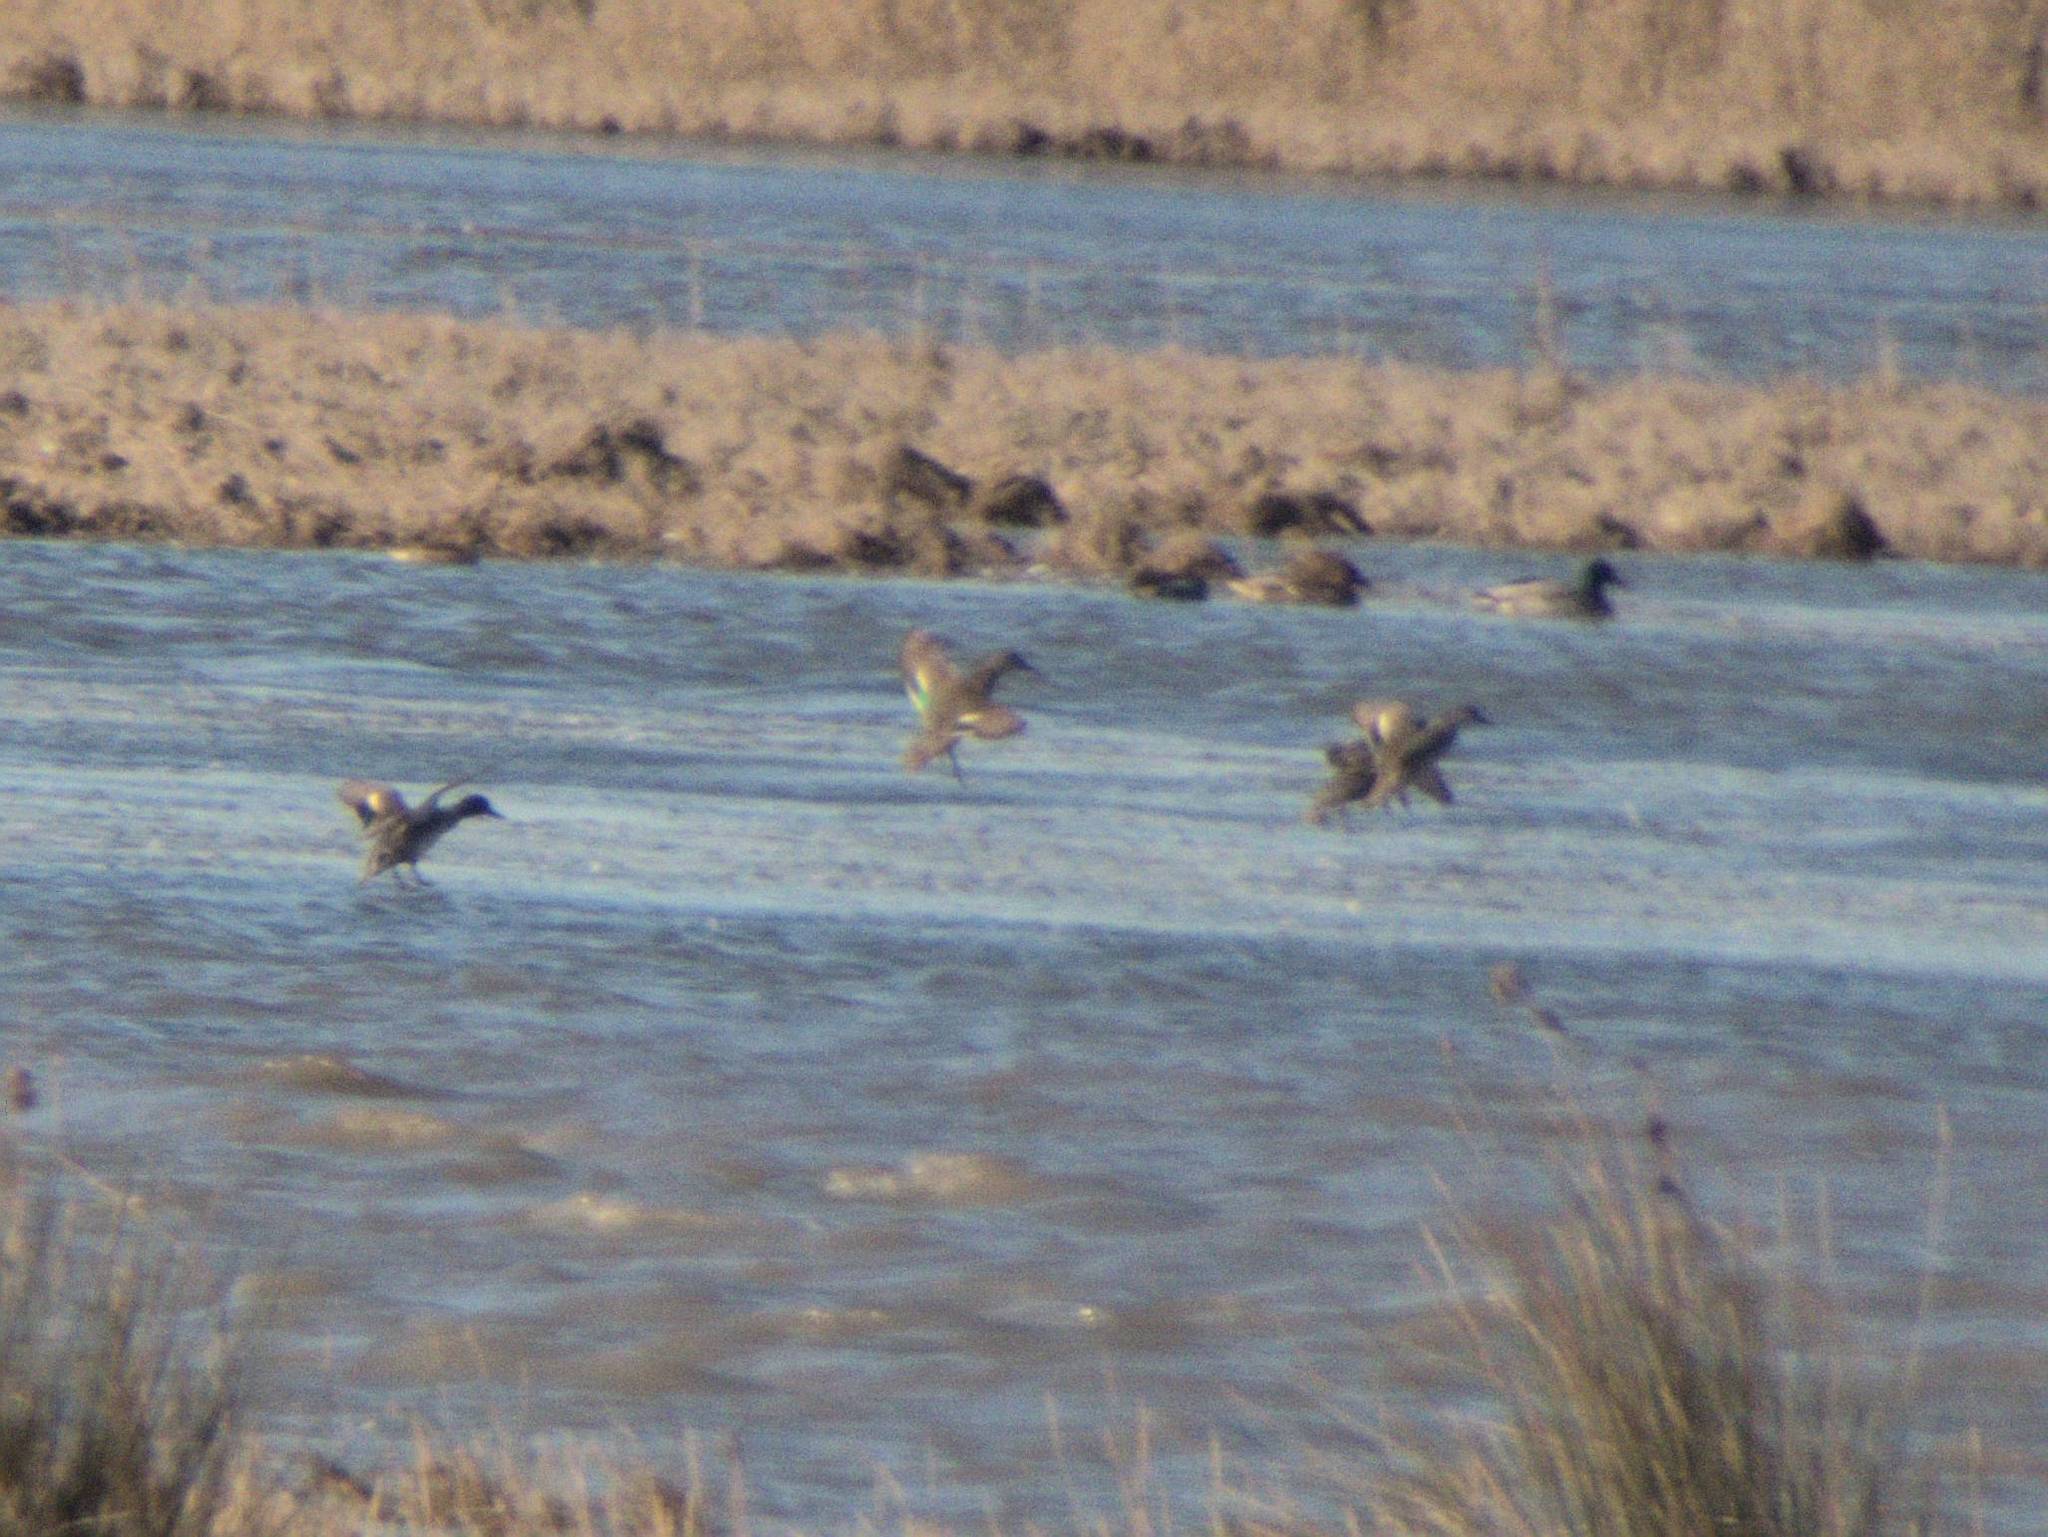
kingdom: Animalia
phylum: Chordata
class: Aves
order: Anseriformes
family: Anatidae
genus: Mareca
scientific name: Mareca strepera
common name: Gadwall
